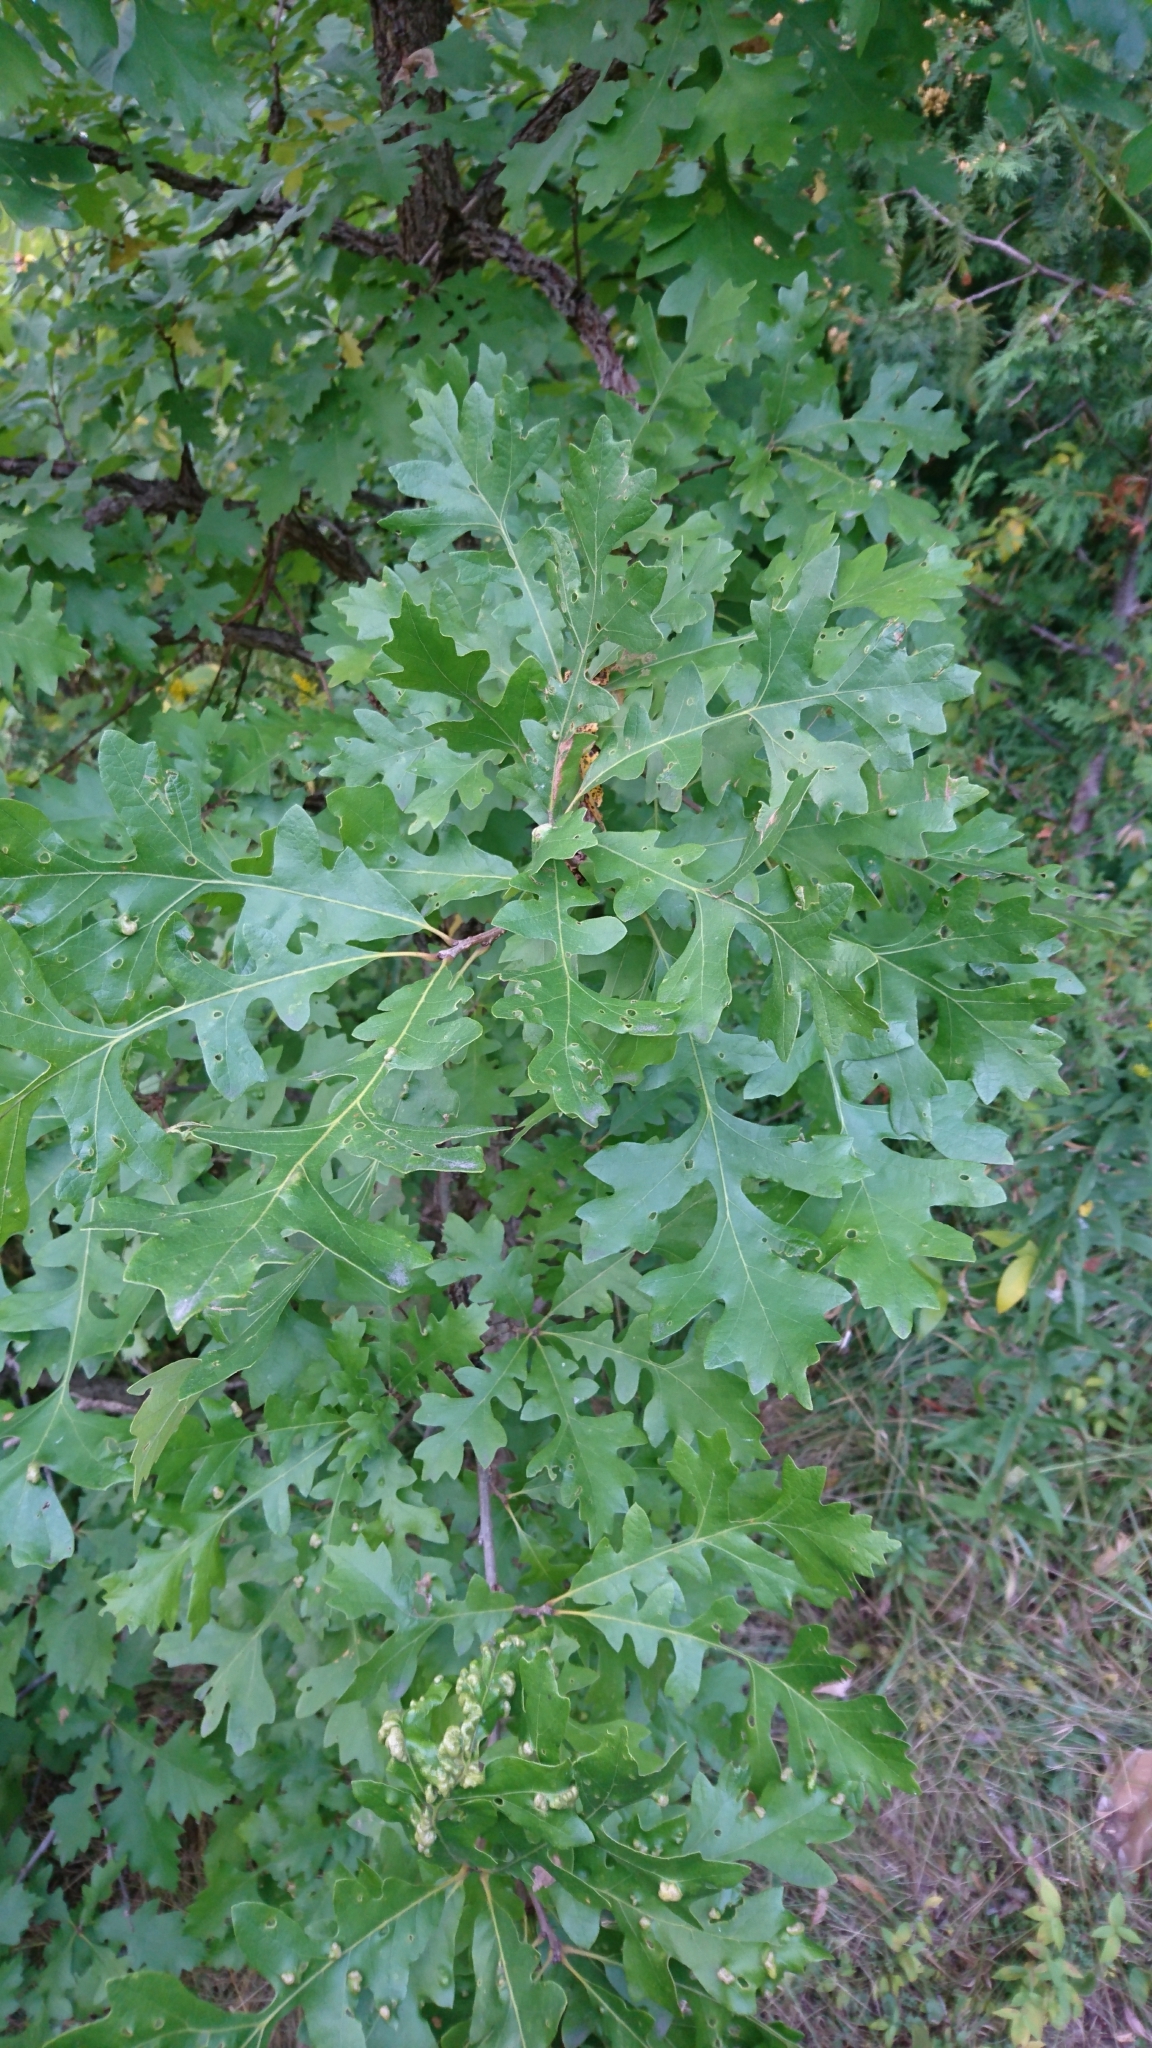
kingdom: Plantae
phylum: Tracheophyta
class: Magnoliopsida
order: Fagales
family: Fagaceae
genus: Quercus
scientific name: Quercus macrocarpa
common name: Bur oak
